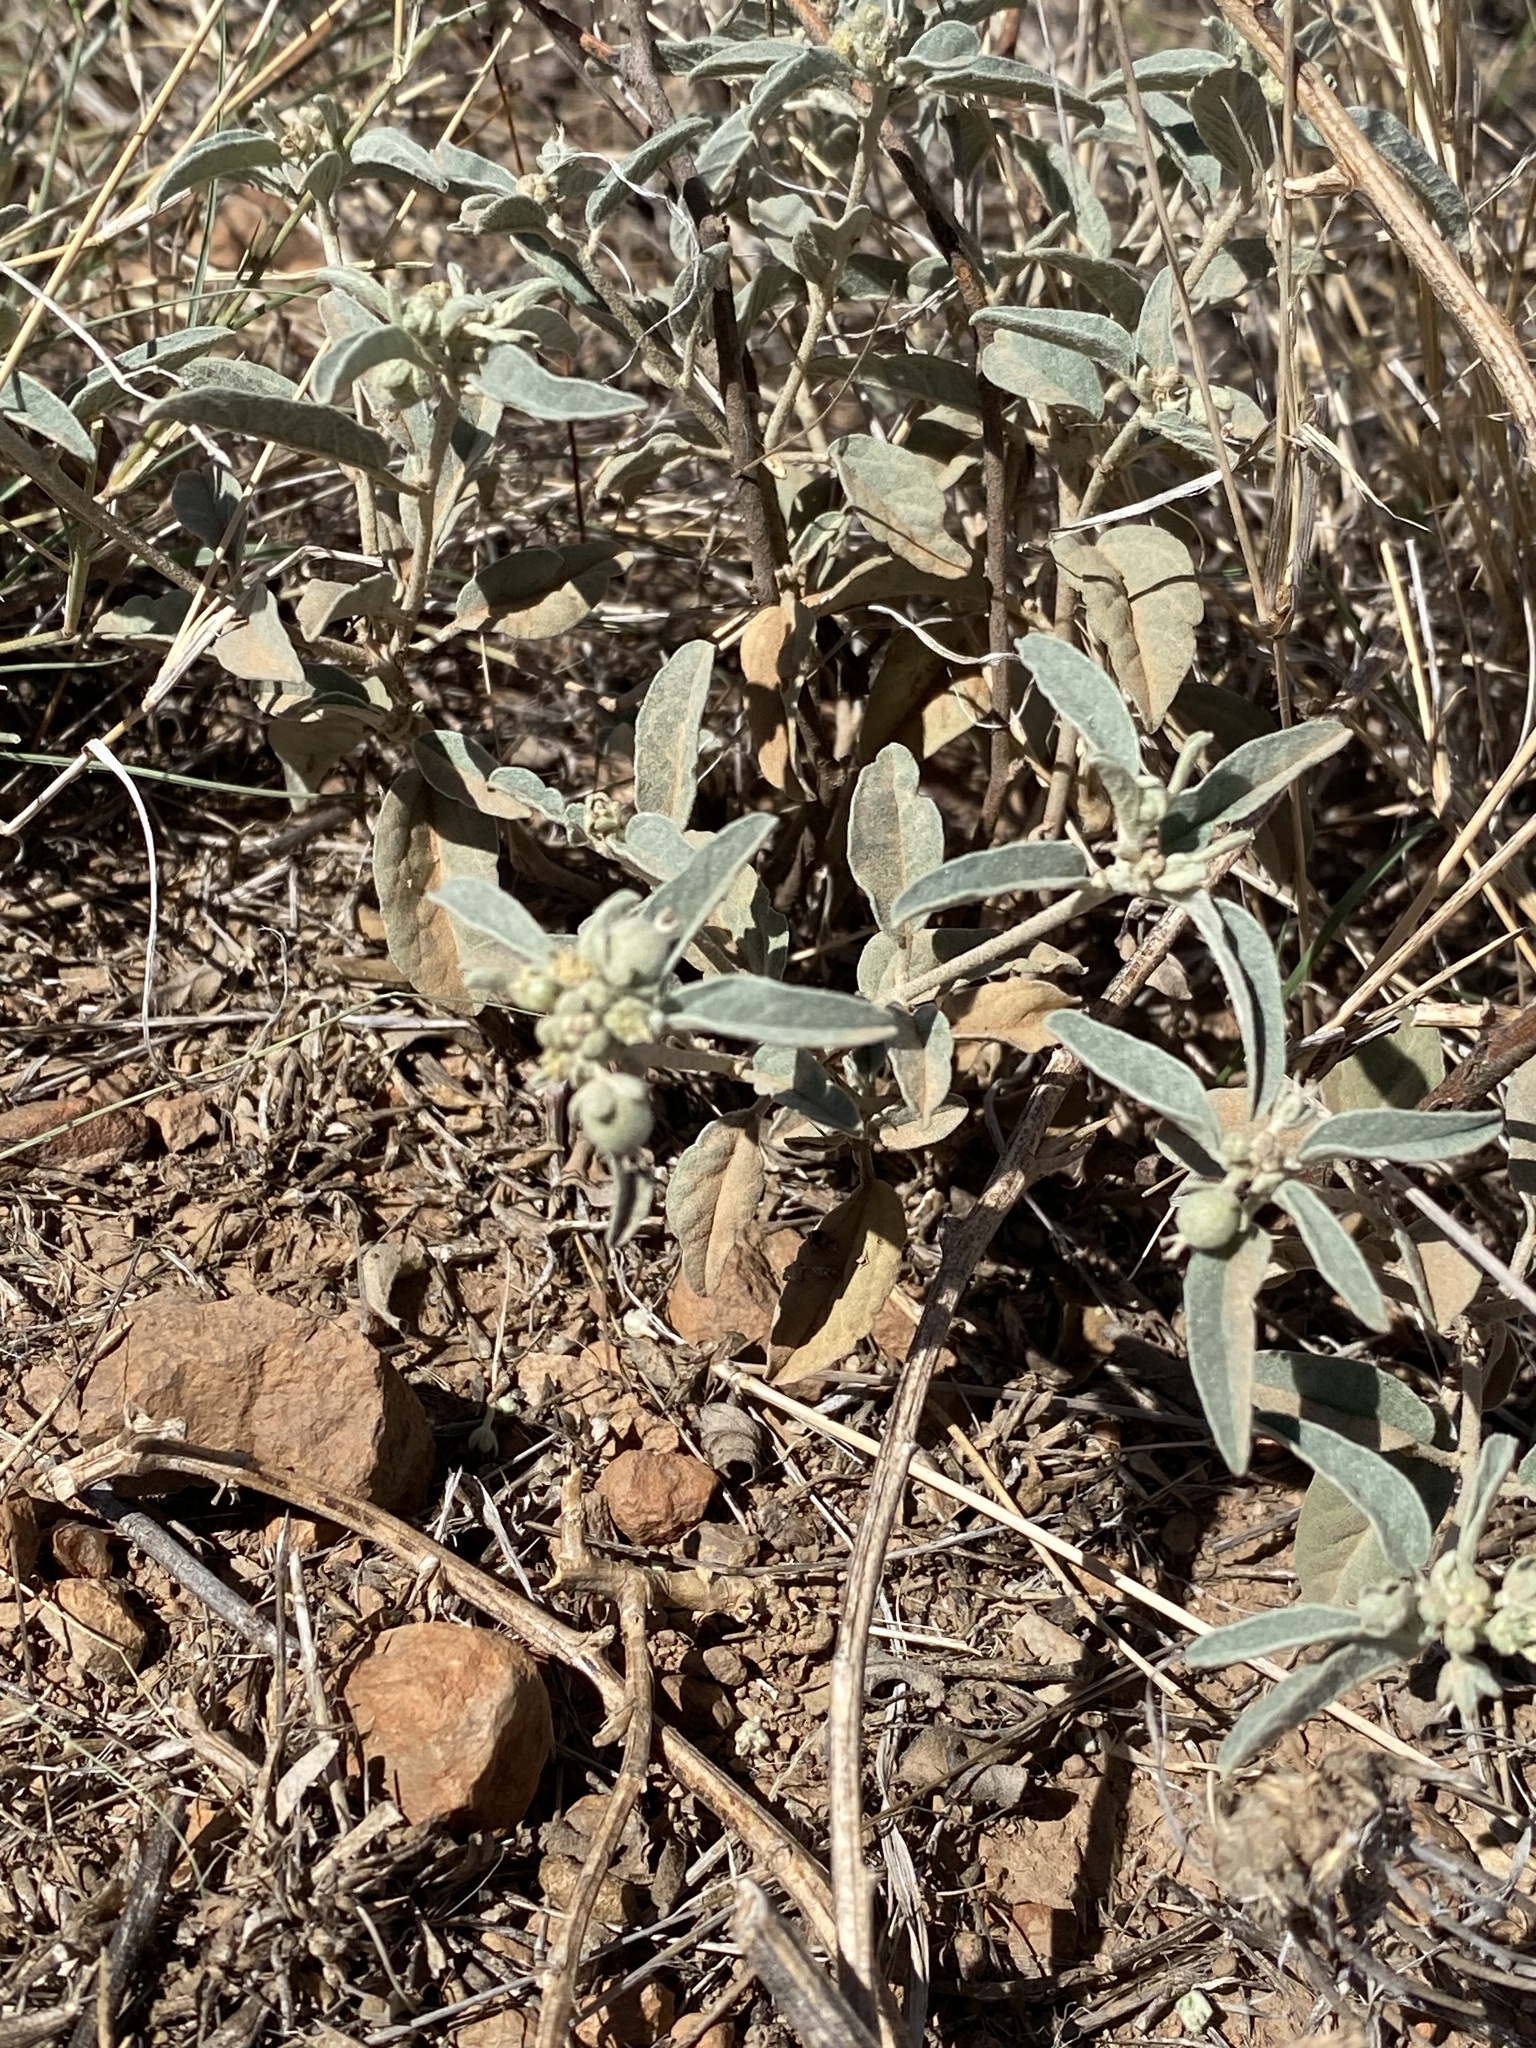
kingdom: Plantae
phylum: Tracheophyta
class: Magnoliopsida
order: Malpighiales
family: Euphorbiaceae
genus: Croton
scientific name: Croton pottsii
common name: Leatherweed
